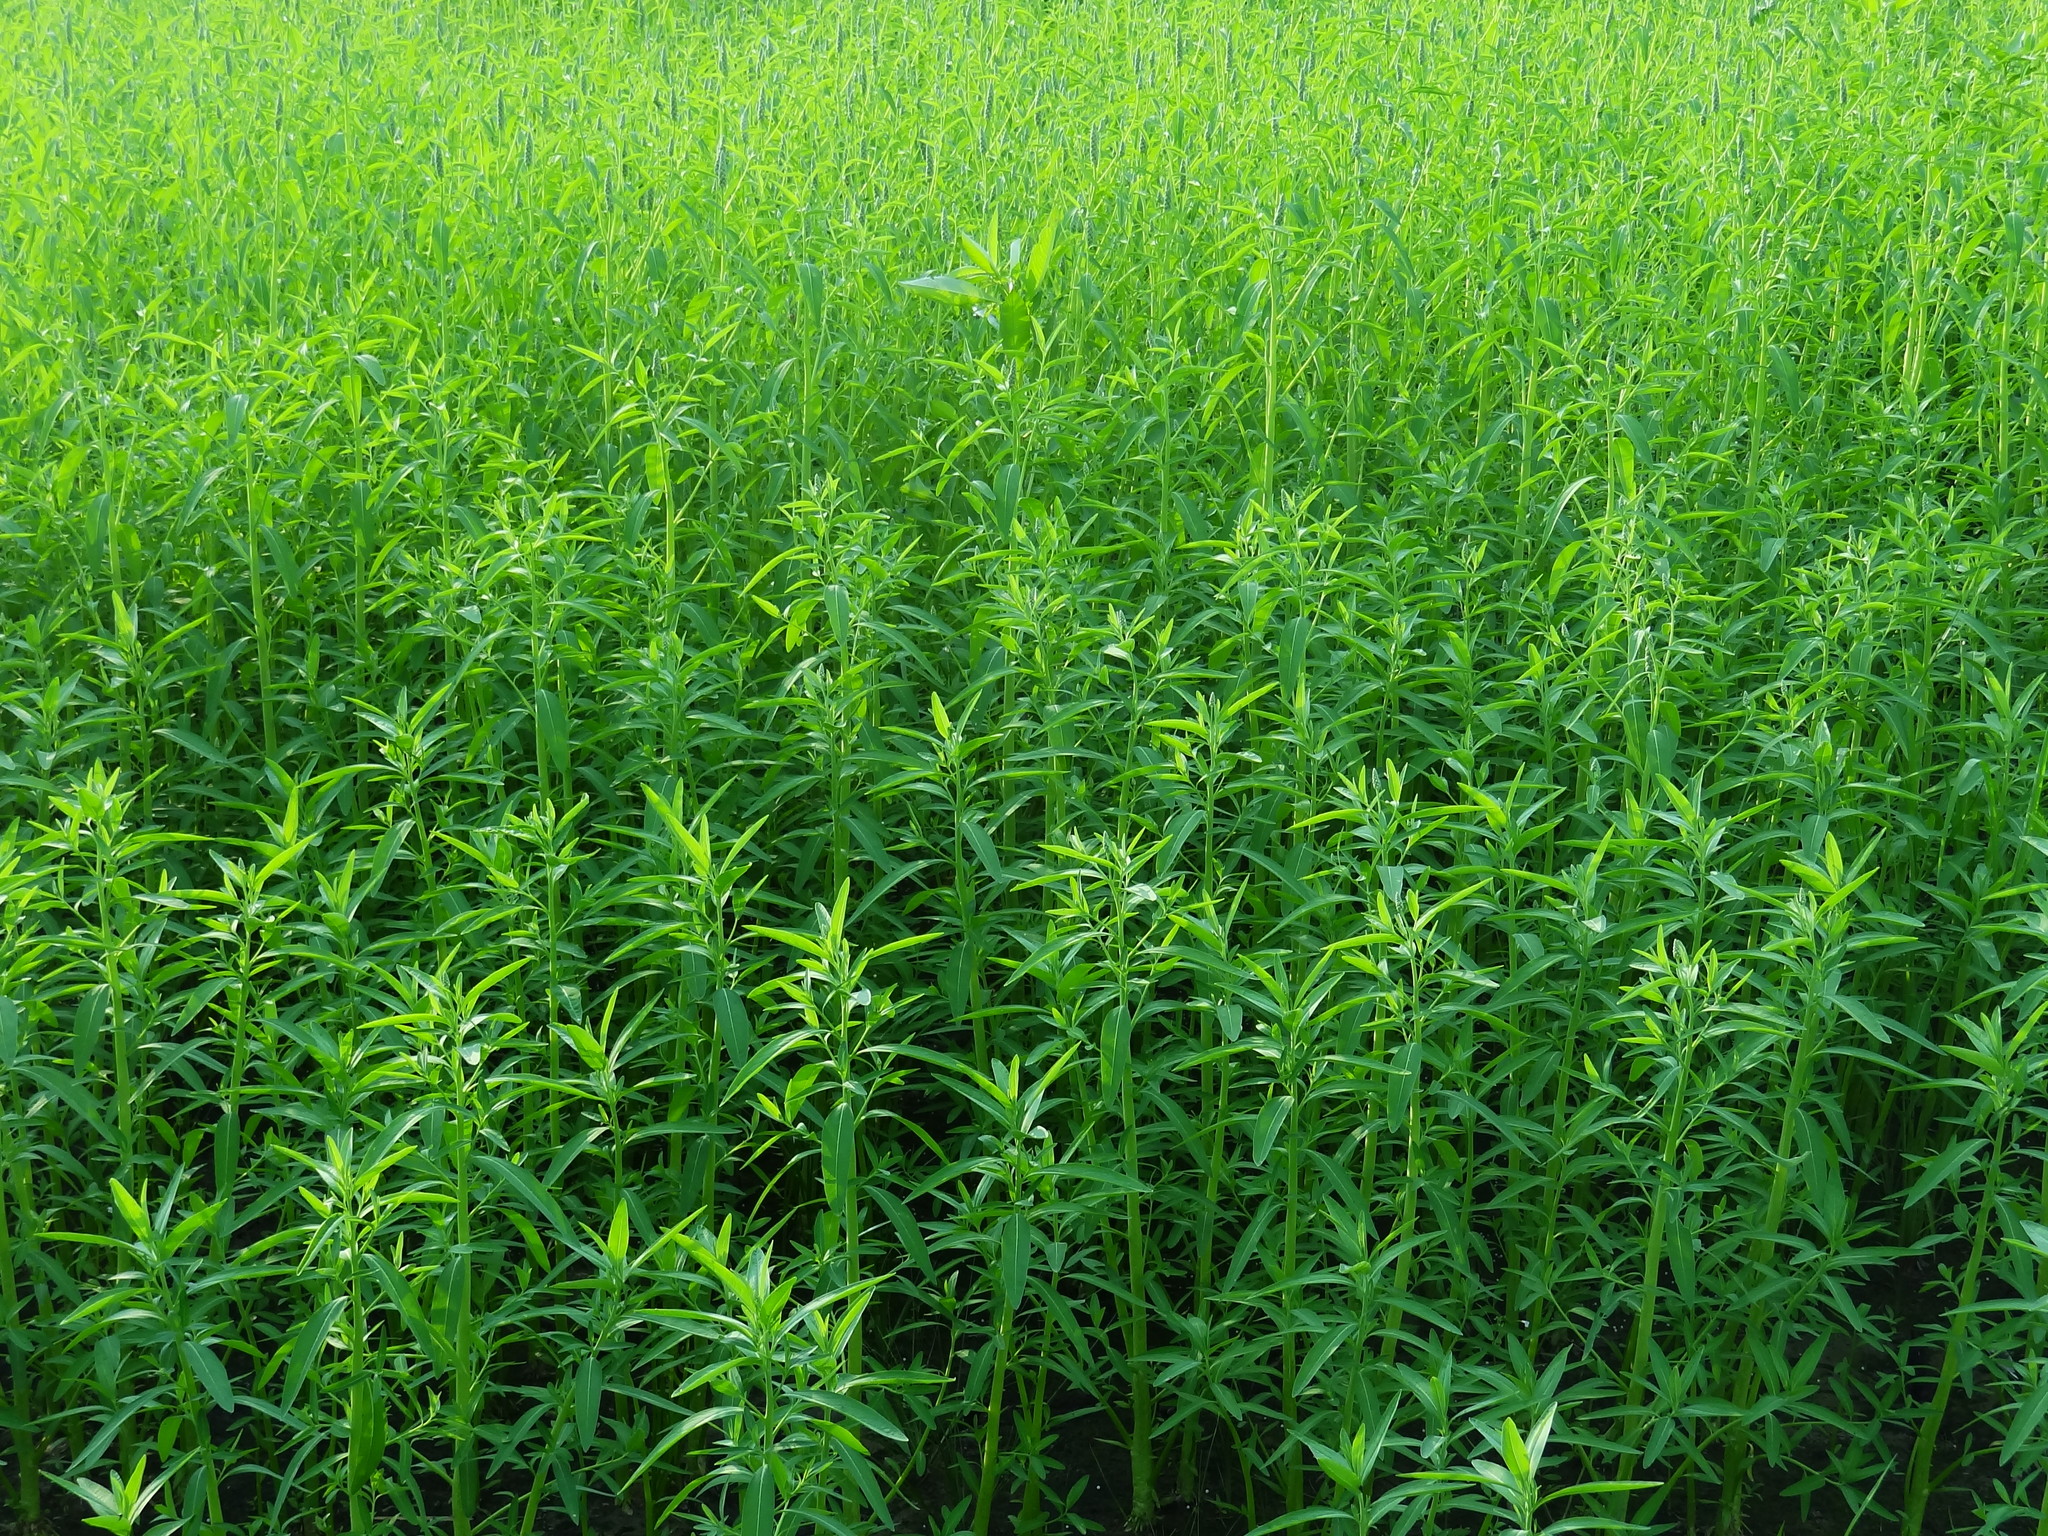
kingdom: Plantae
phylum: Tracheophyta
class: Magnoliopsida
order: Solanales
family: Sphenocleaceae
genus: Sphenoclea
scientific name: Sphenoclea zeylanica
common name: Chickenspike
